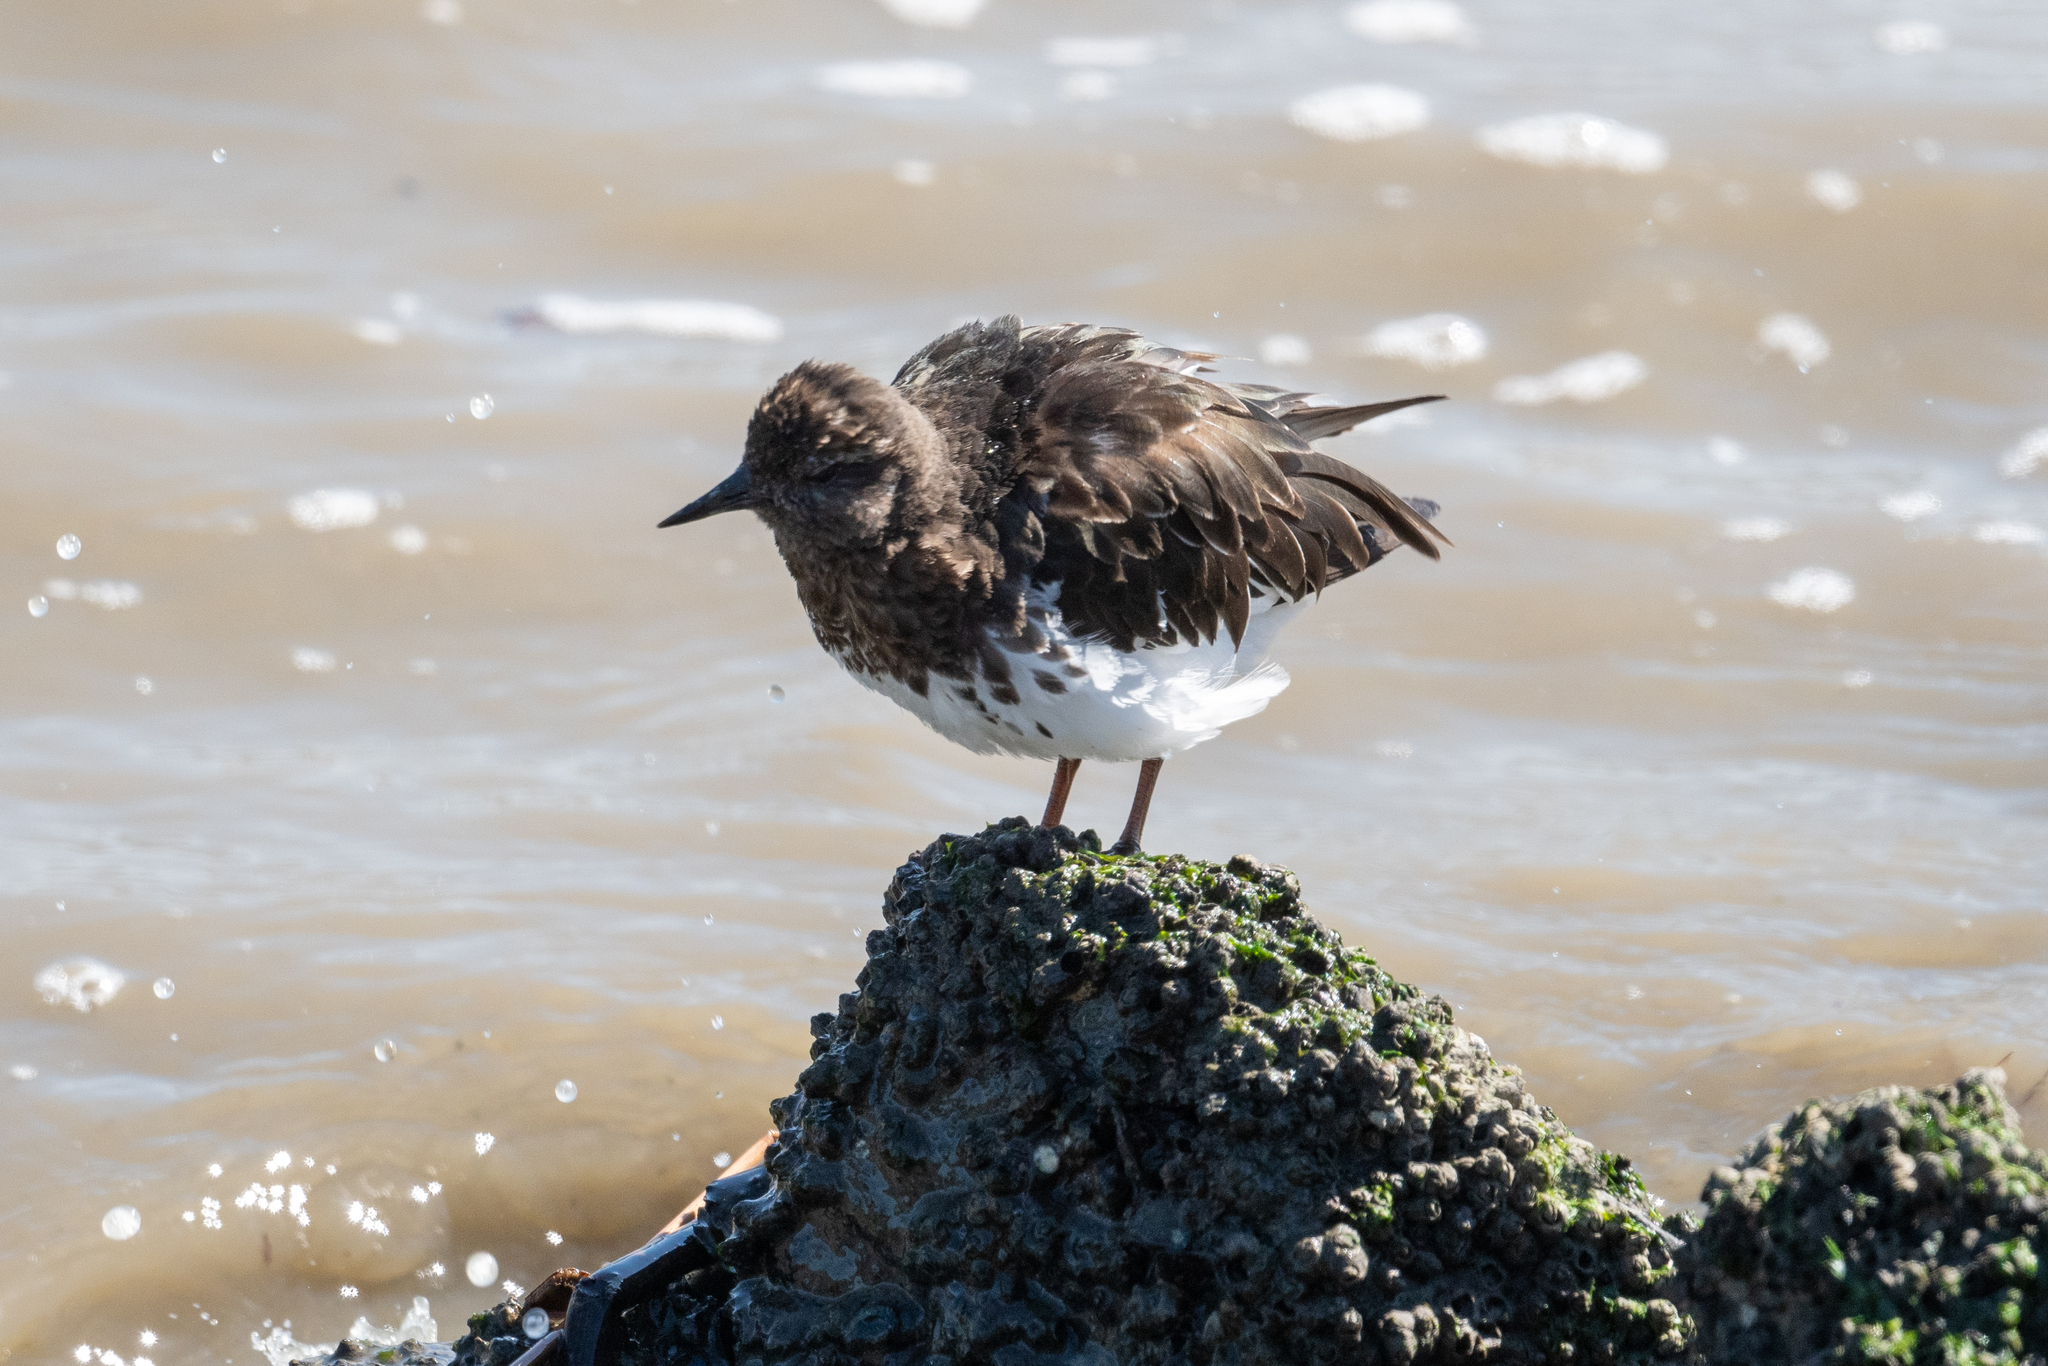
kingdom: Animalia
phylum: Chordata
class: Aves
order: Charadriiformes
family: Scolopacidae
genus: Arenaria
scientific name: Arenaria melanocephala
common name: Black turnstone
